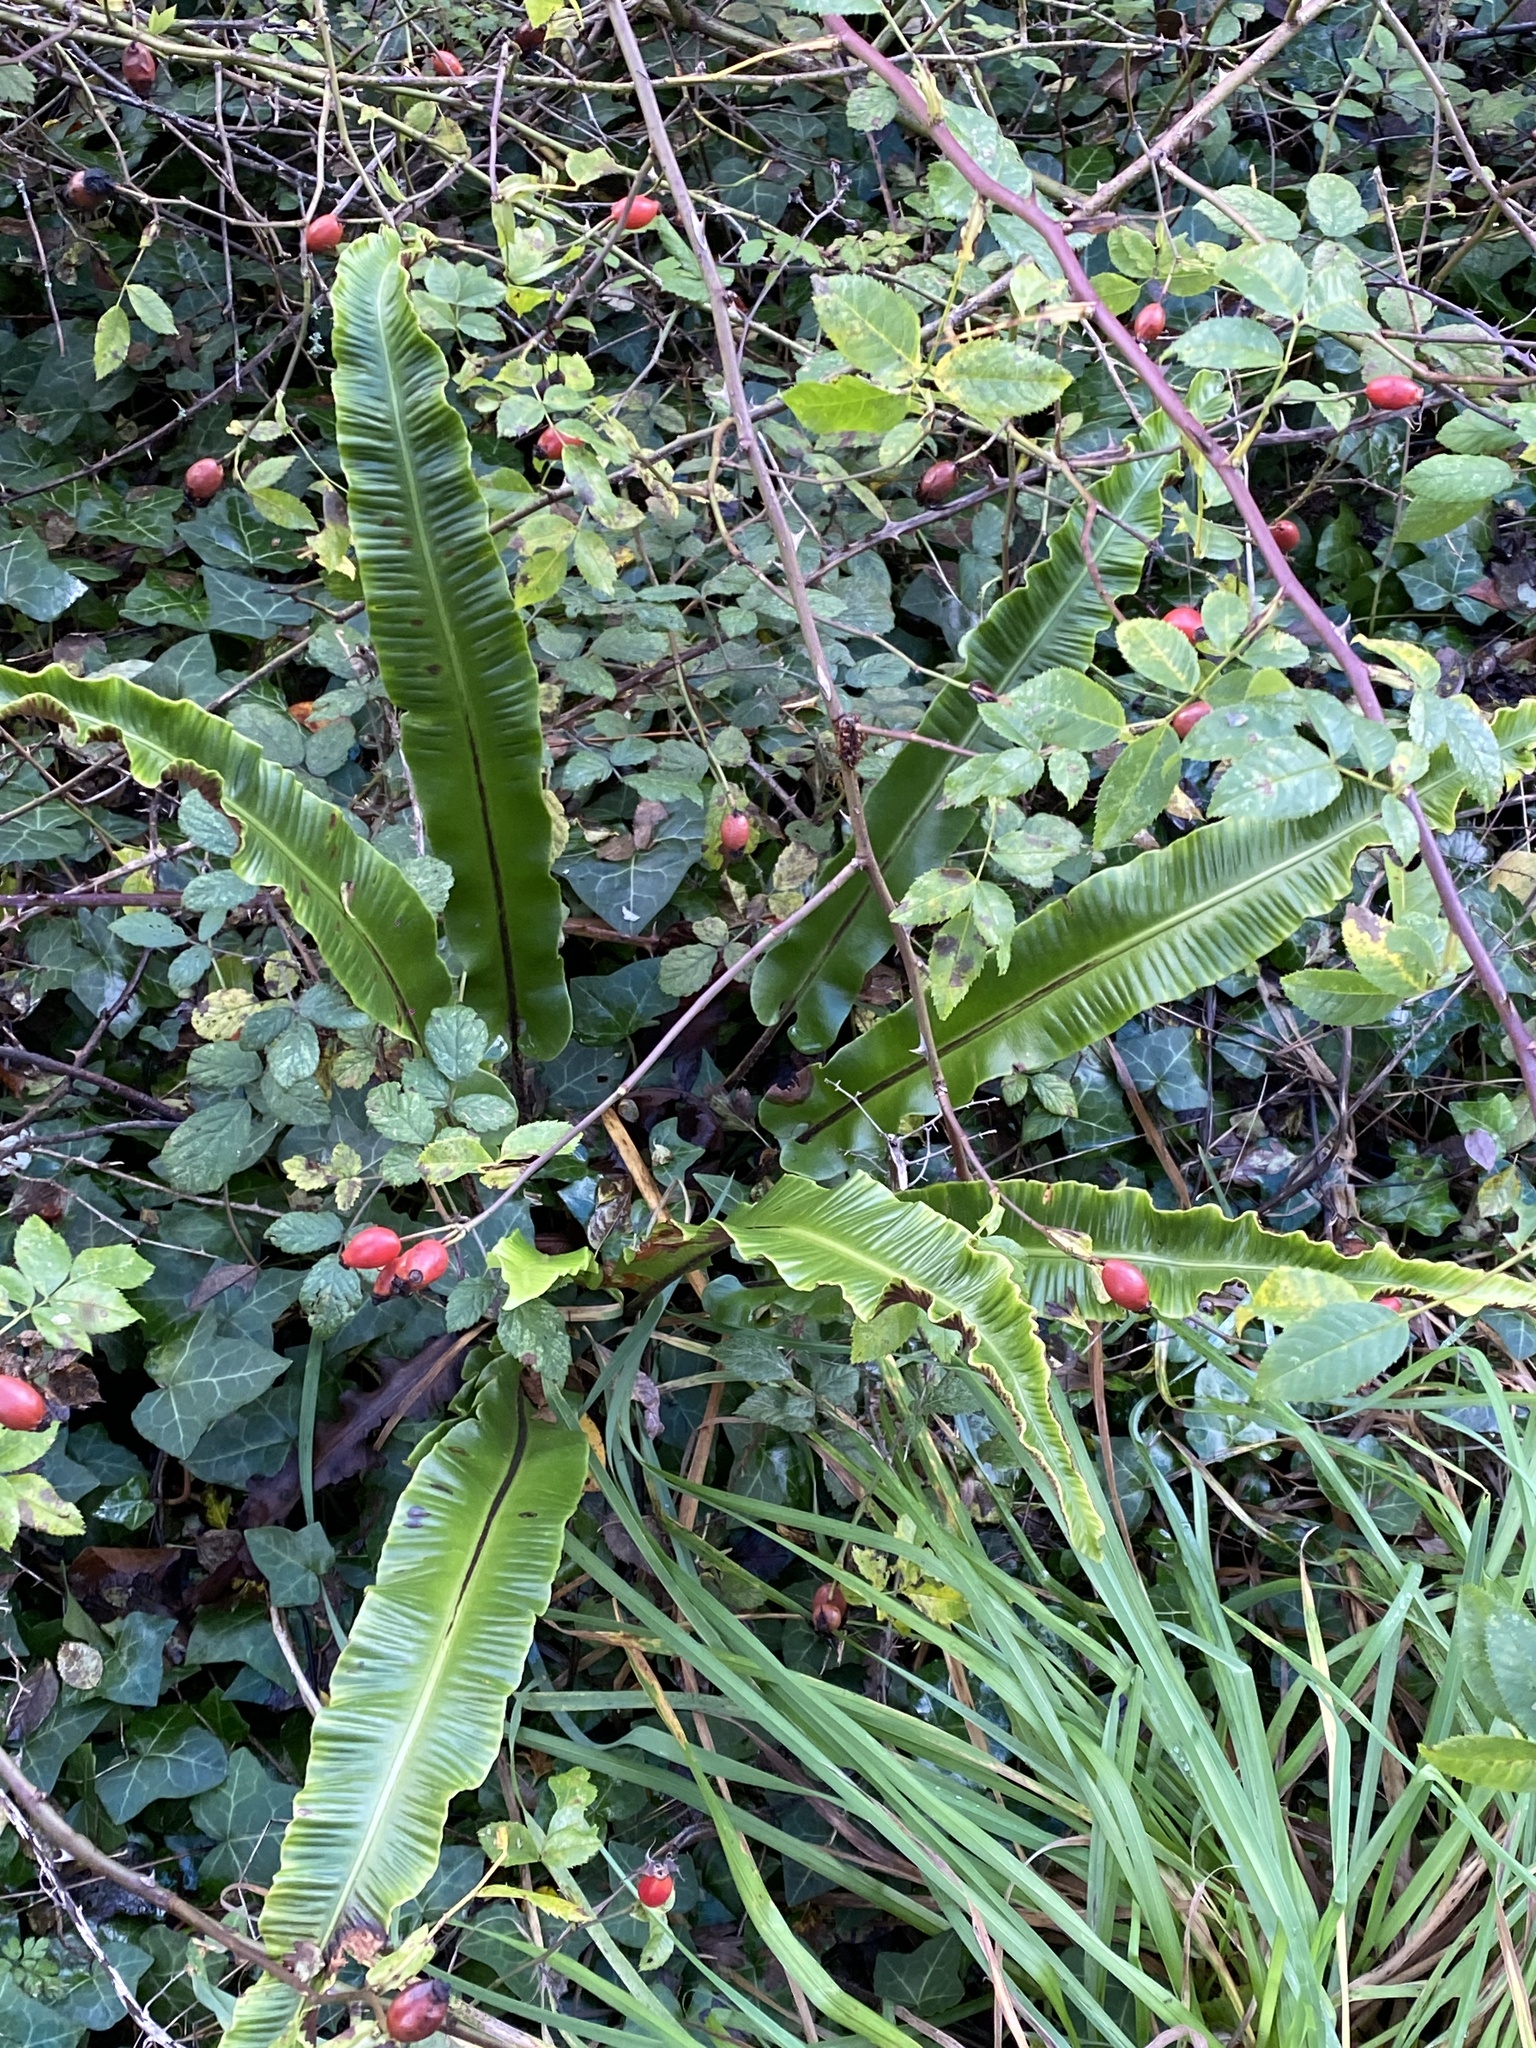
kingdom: Plantae
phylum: Tracheophyta
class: Polypodiopsida
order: Polypodiales
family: Aspleniaceae
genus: Asplenium
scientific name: Asplenium scolopendrium
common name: Hart's-tongue fern
